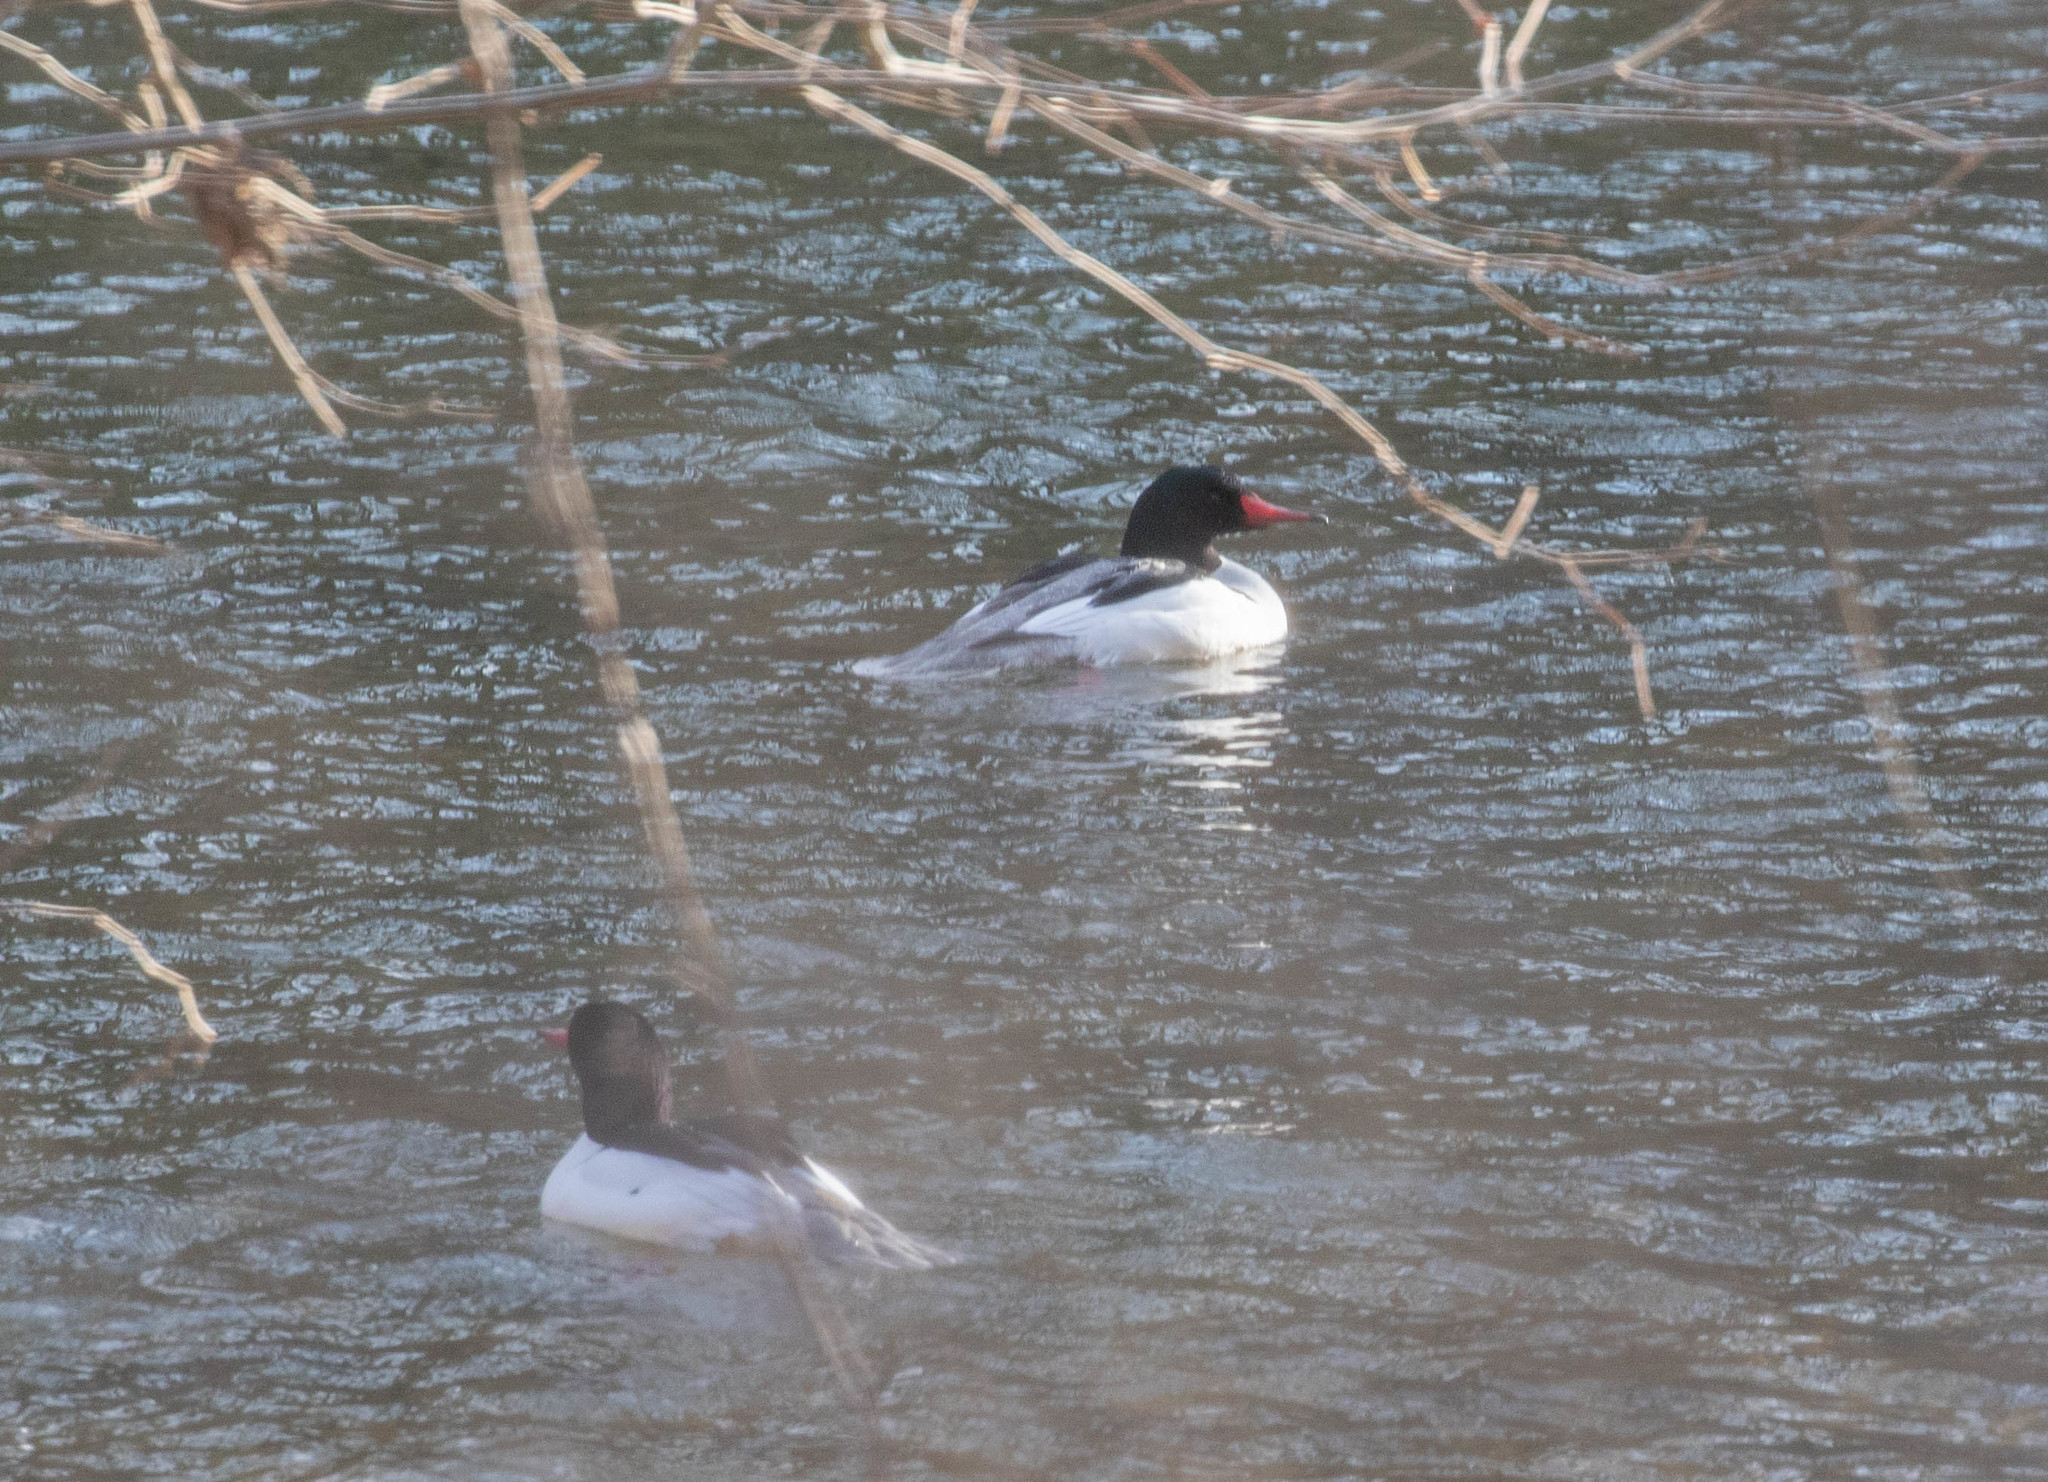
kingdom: Animalia
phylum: Chordata
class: Aves
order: Anseriformes
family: Anatidae
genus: Mergus
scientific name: Mergus merganser
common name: Common merganser
